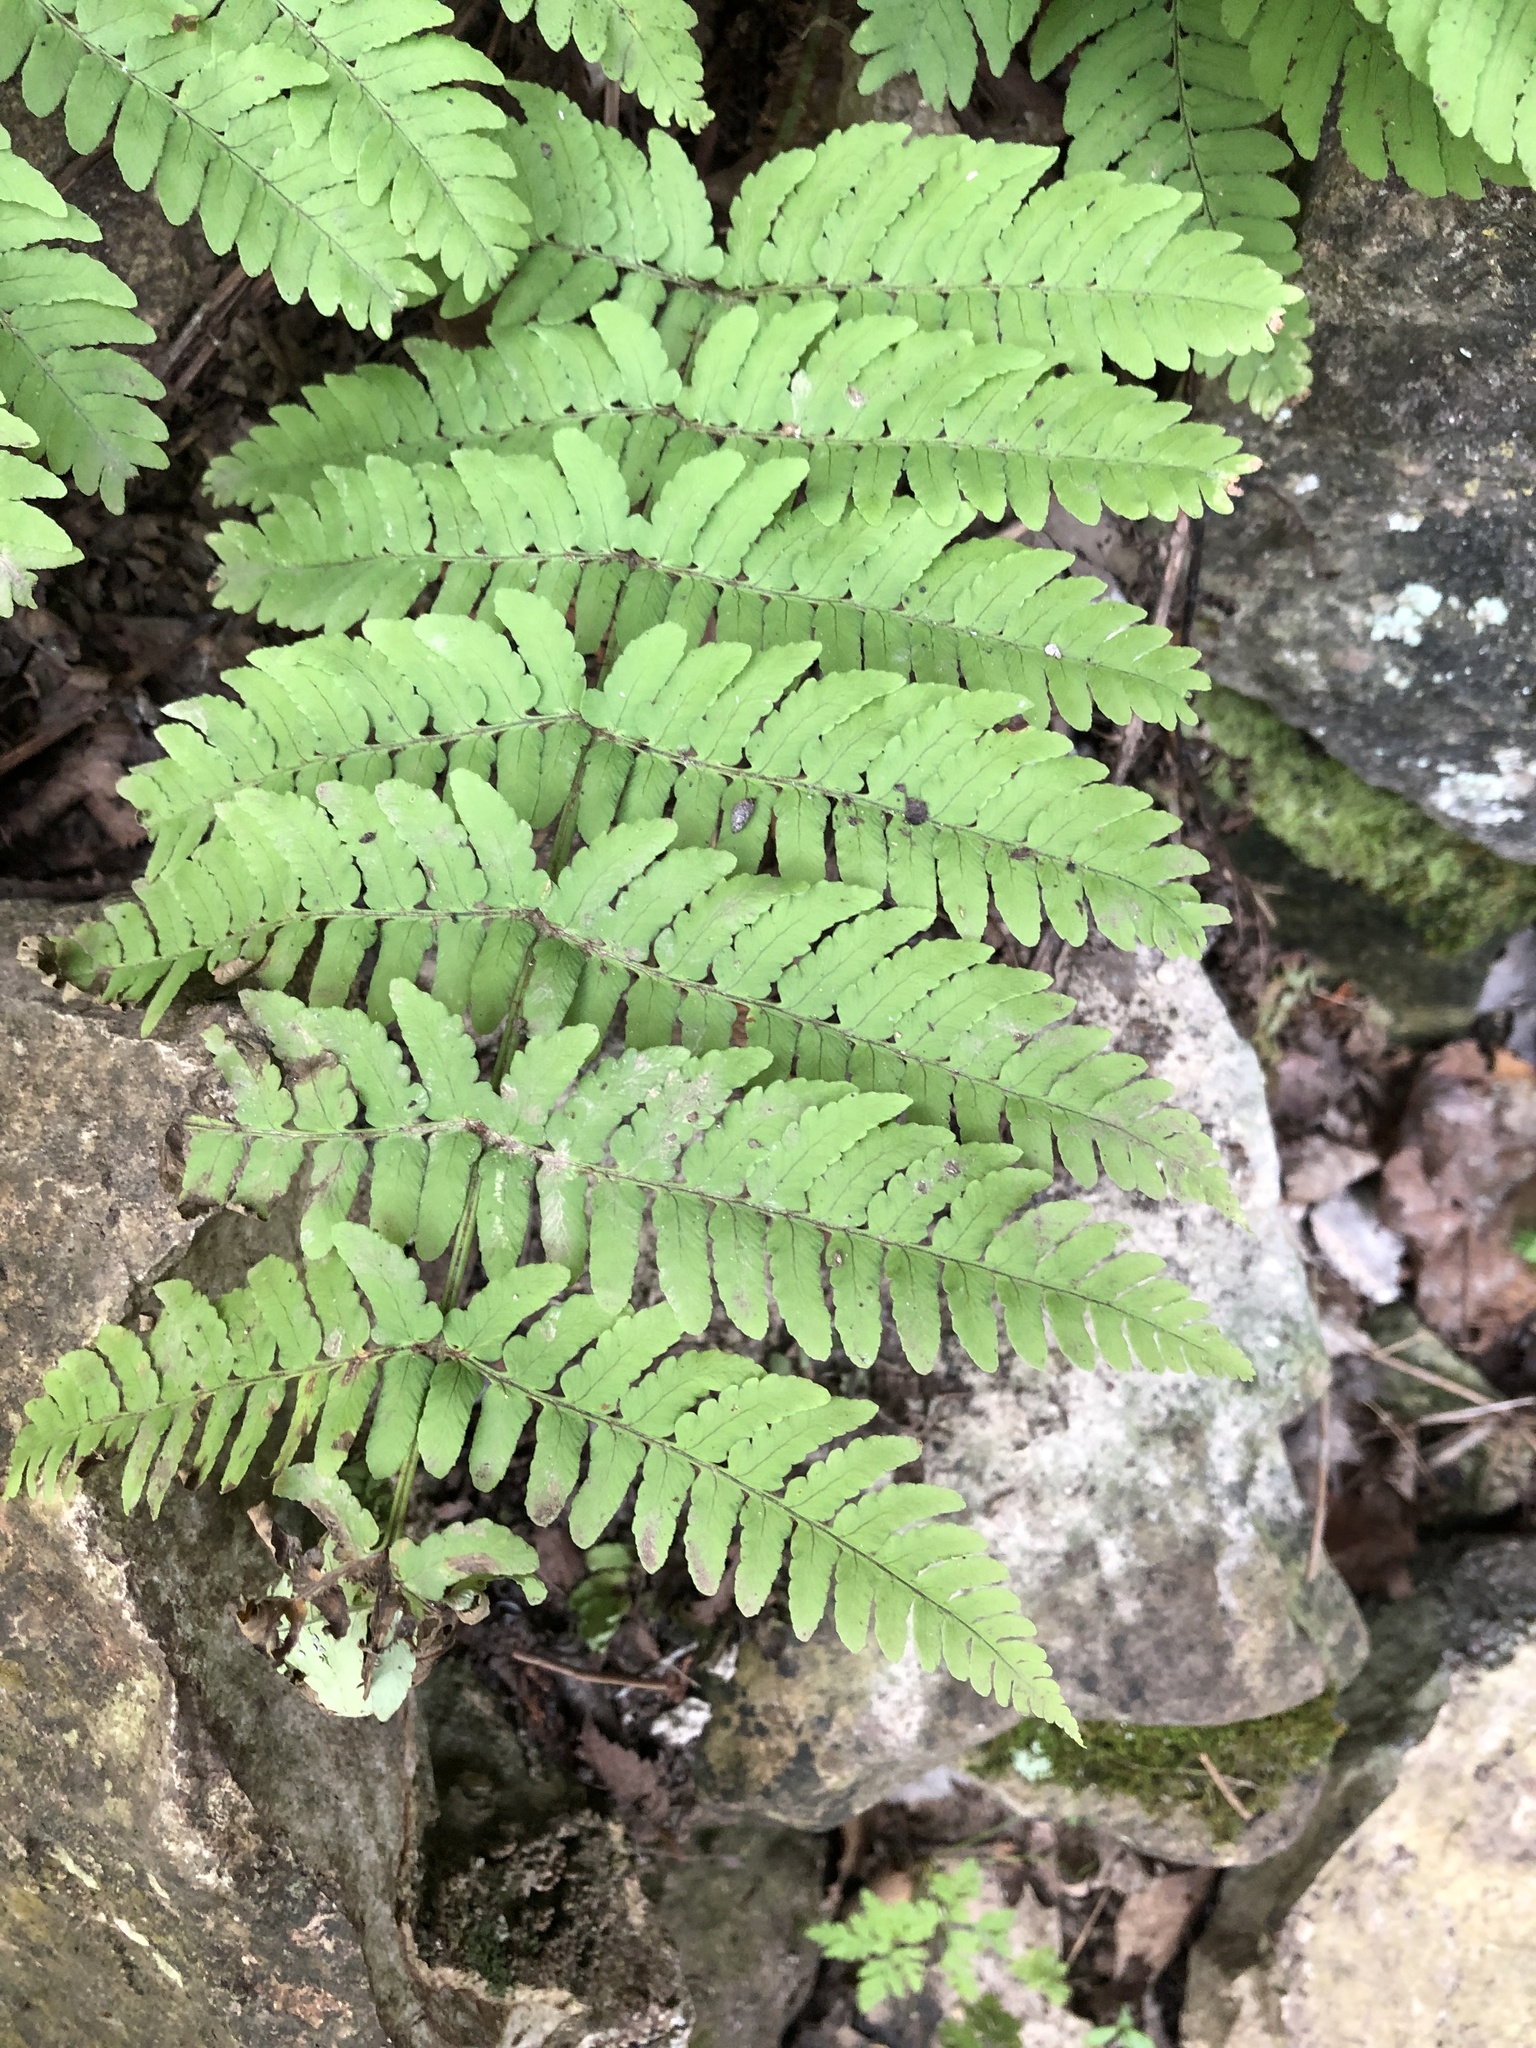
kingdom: Plantae
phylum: Tracheophyta
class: Polypodiopsida
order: Polypodiales
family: Dryopteridaceae
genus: Dryopteris
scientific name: Dryopteris marginalis
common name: Marginal wood fern
